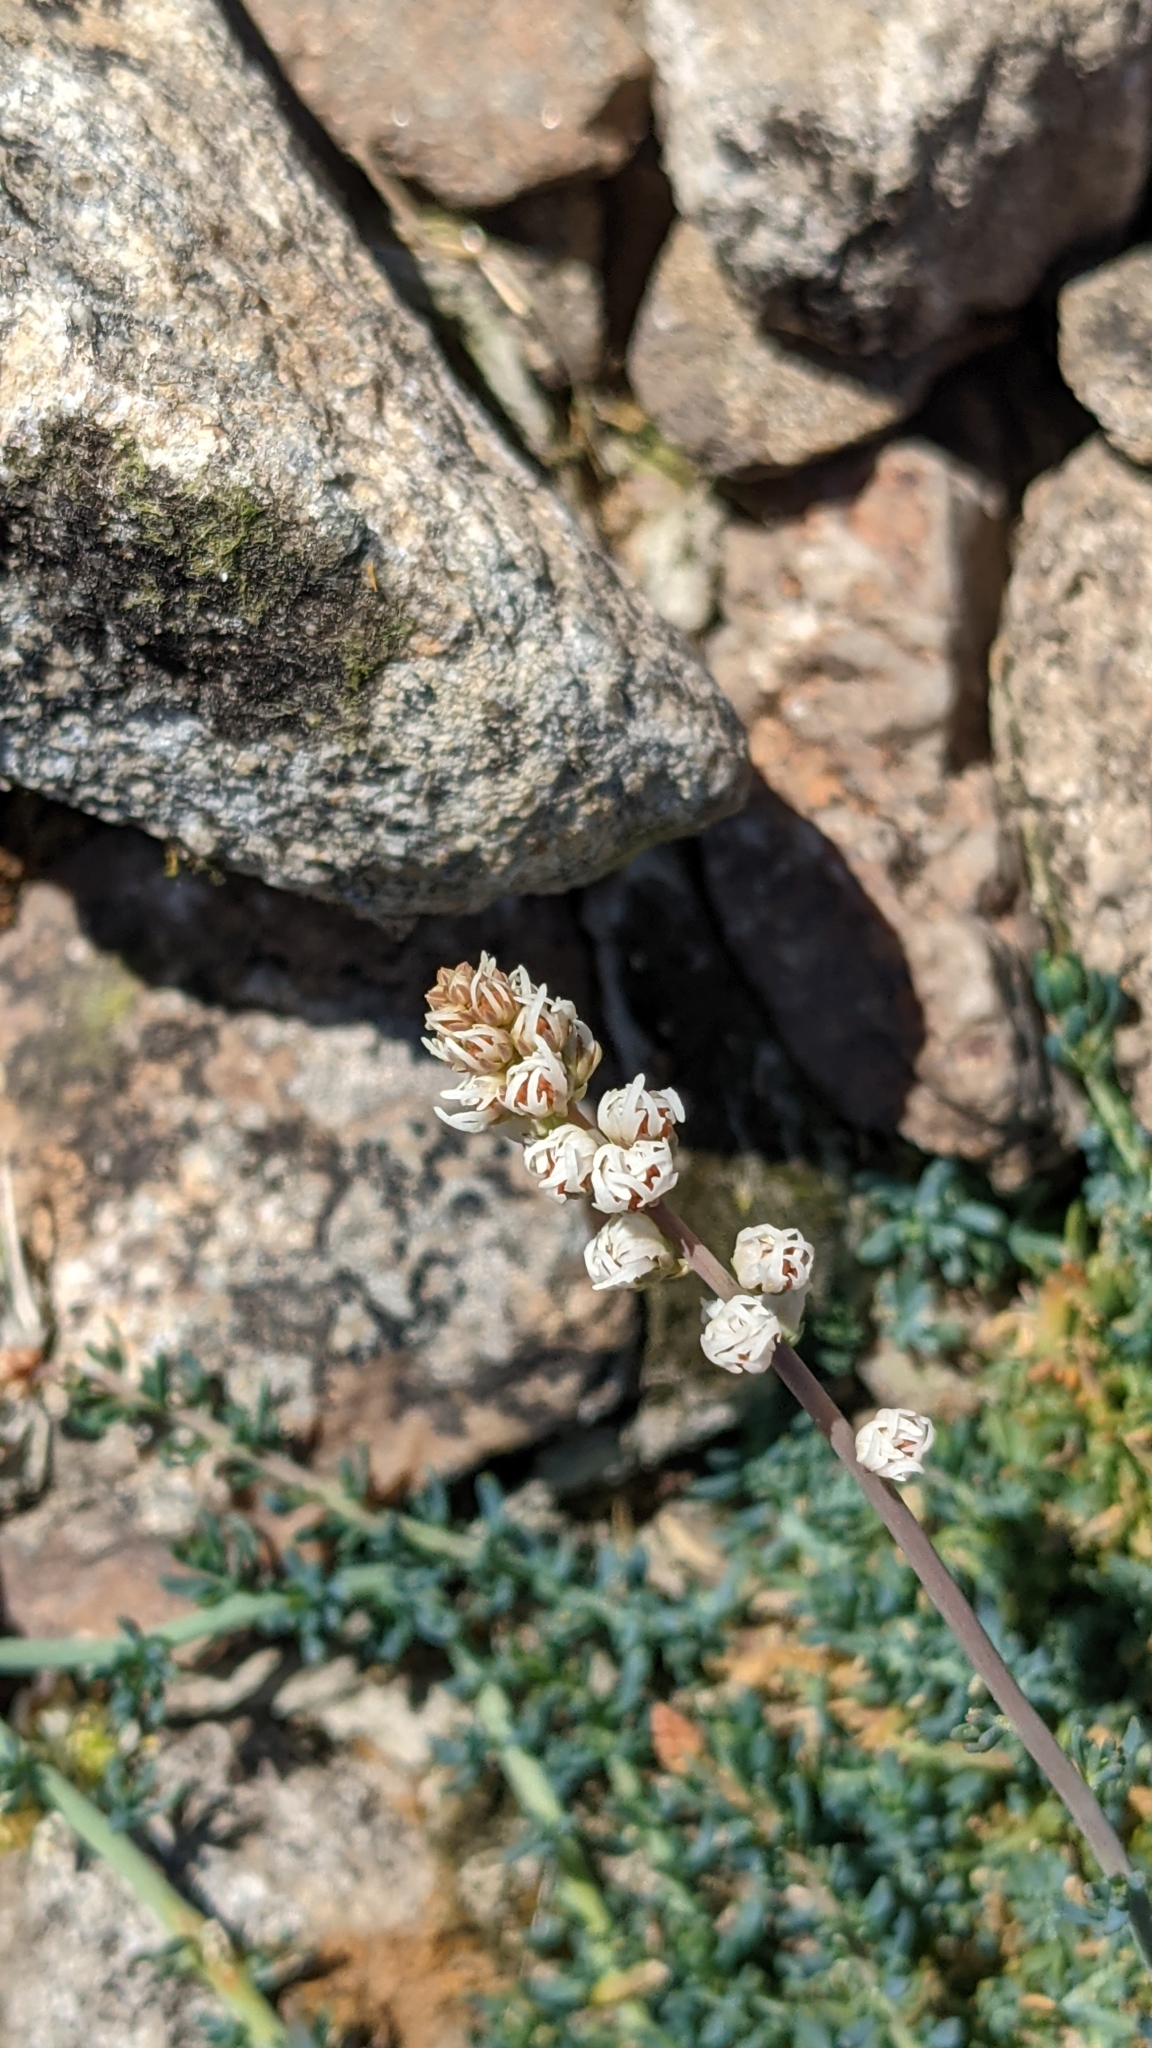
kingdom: Plantae
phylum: Tracheophyta
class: Magnoliopsida
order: Brassicales
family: Resedaceae
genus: Reseda
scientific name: Reseda gredensis
